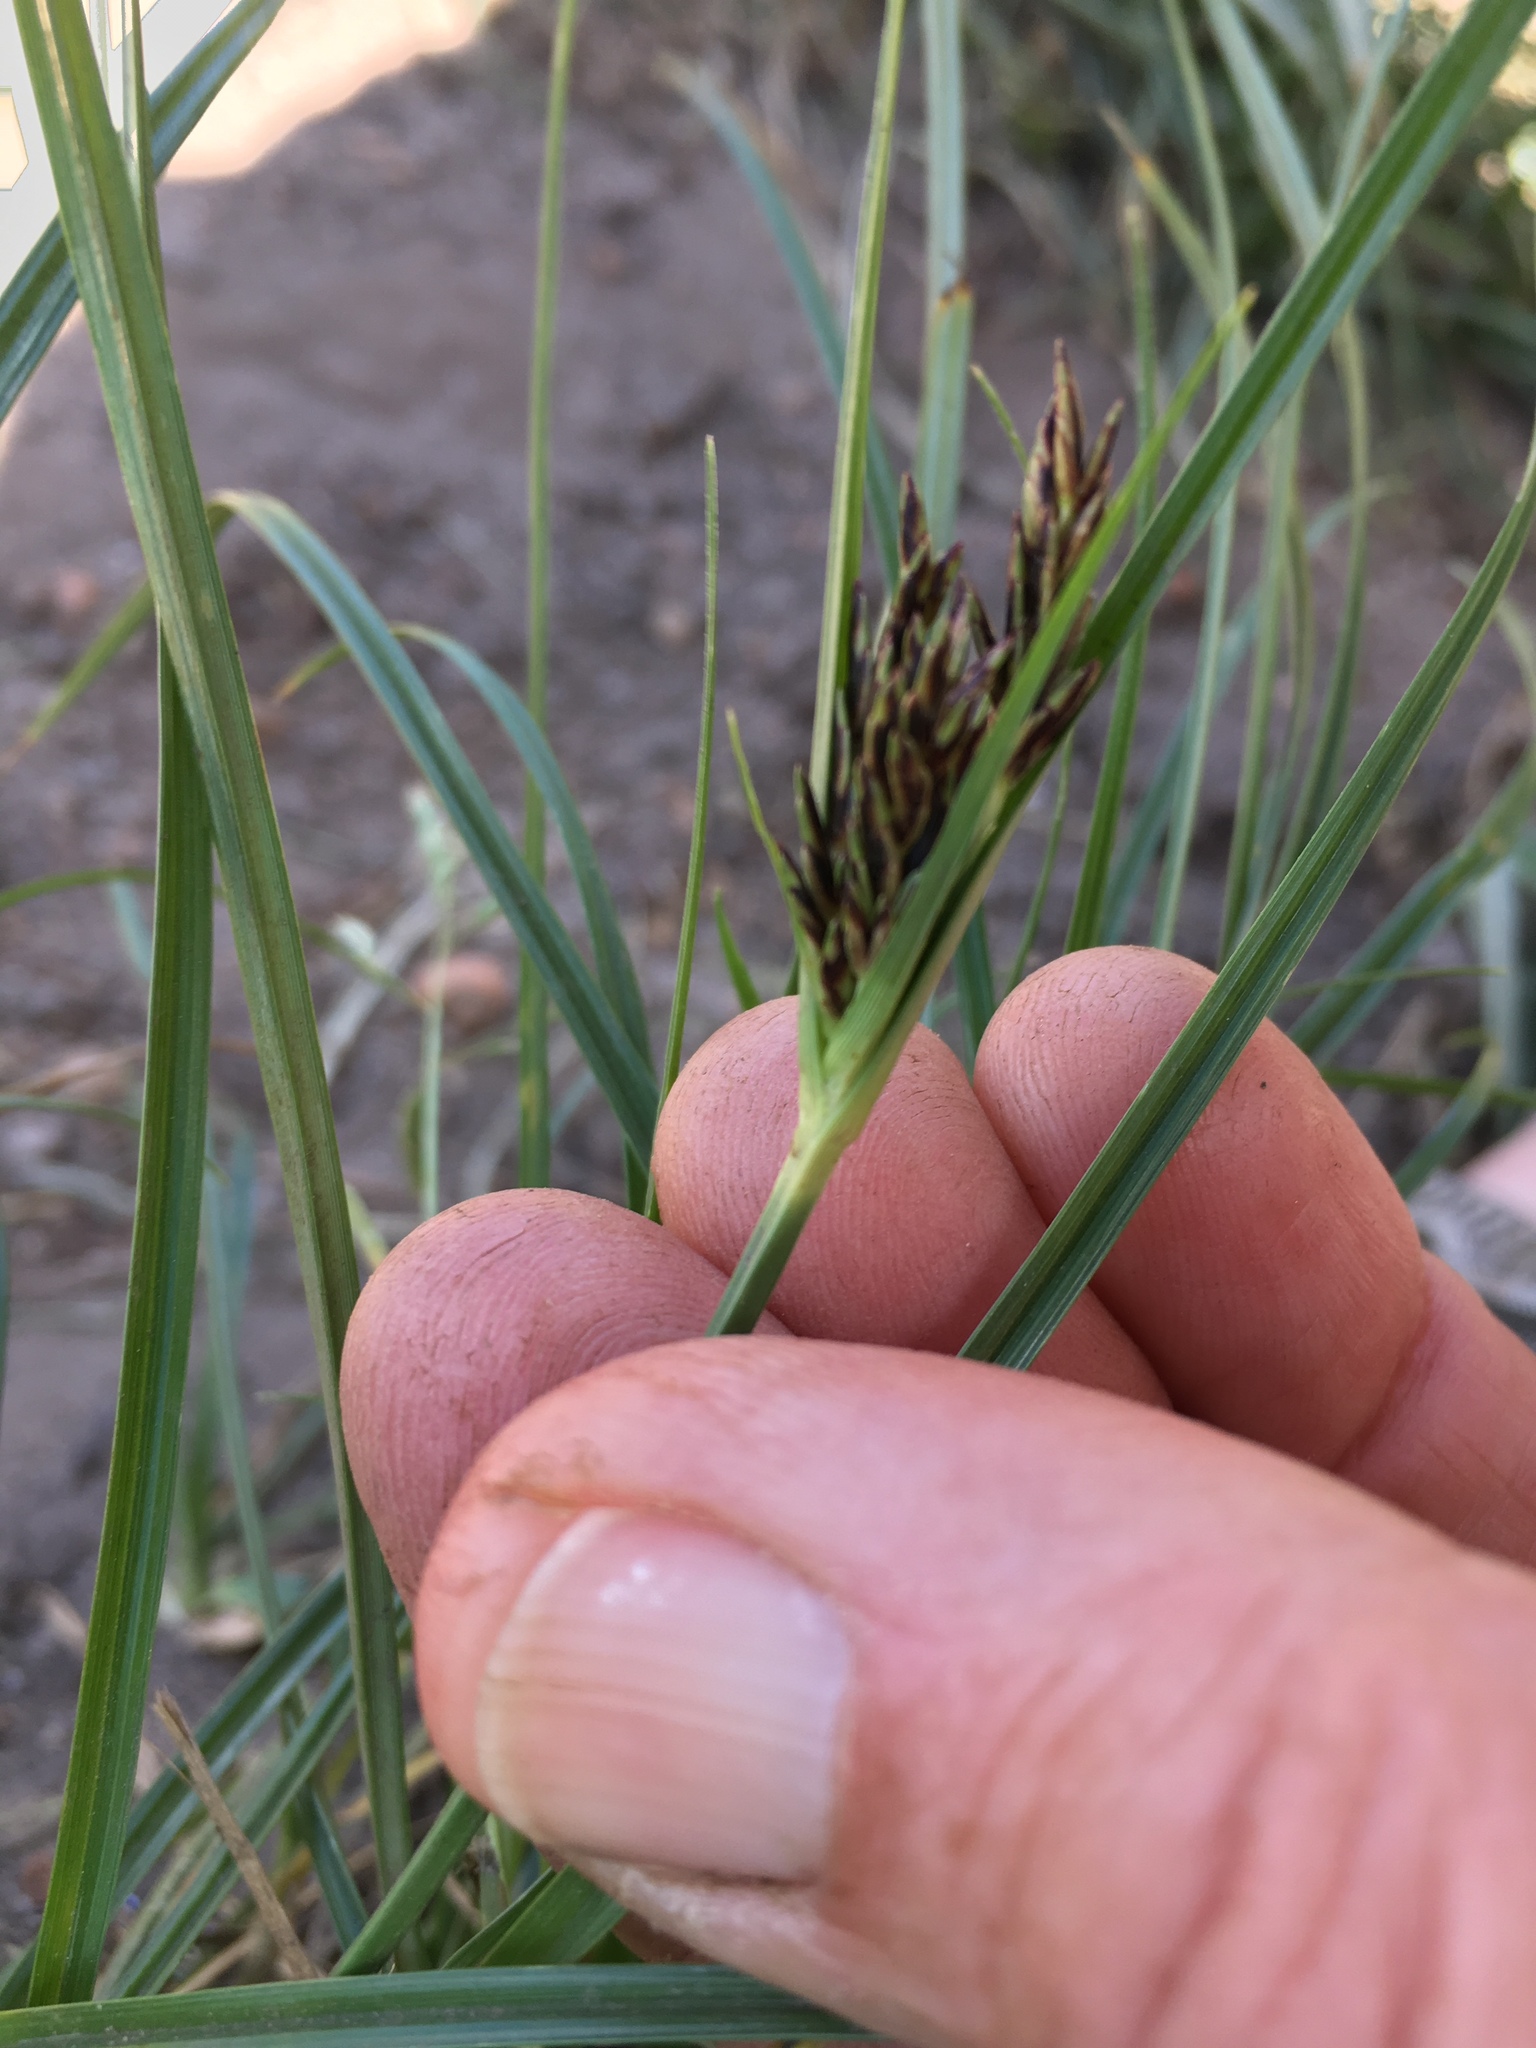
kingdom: Plantae
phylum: Tracheophyta
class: Liliopsida
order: Poales
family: Cyperaceae
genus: Cyperus
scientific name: Cyperus longus
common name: Galingale
